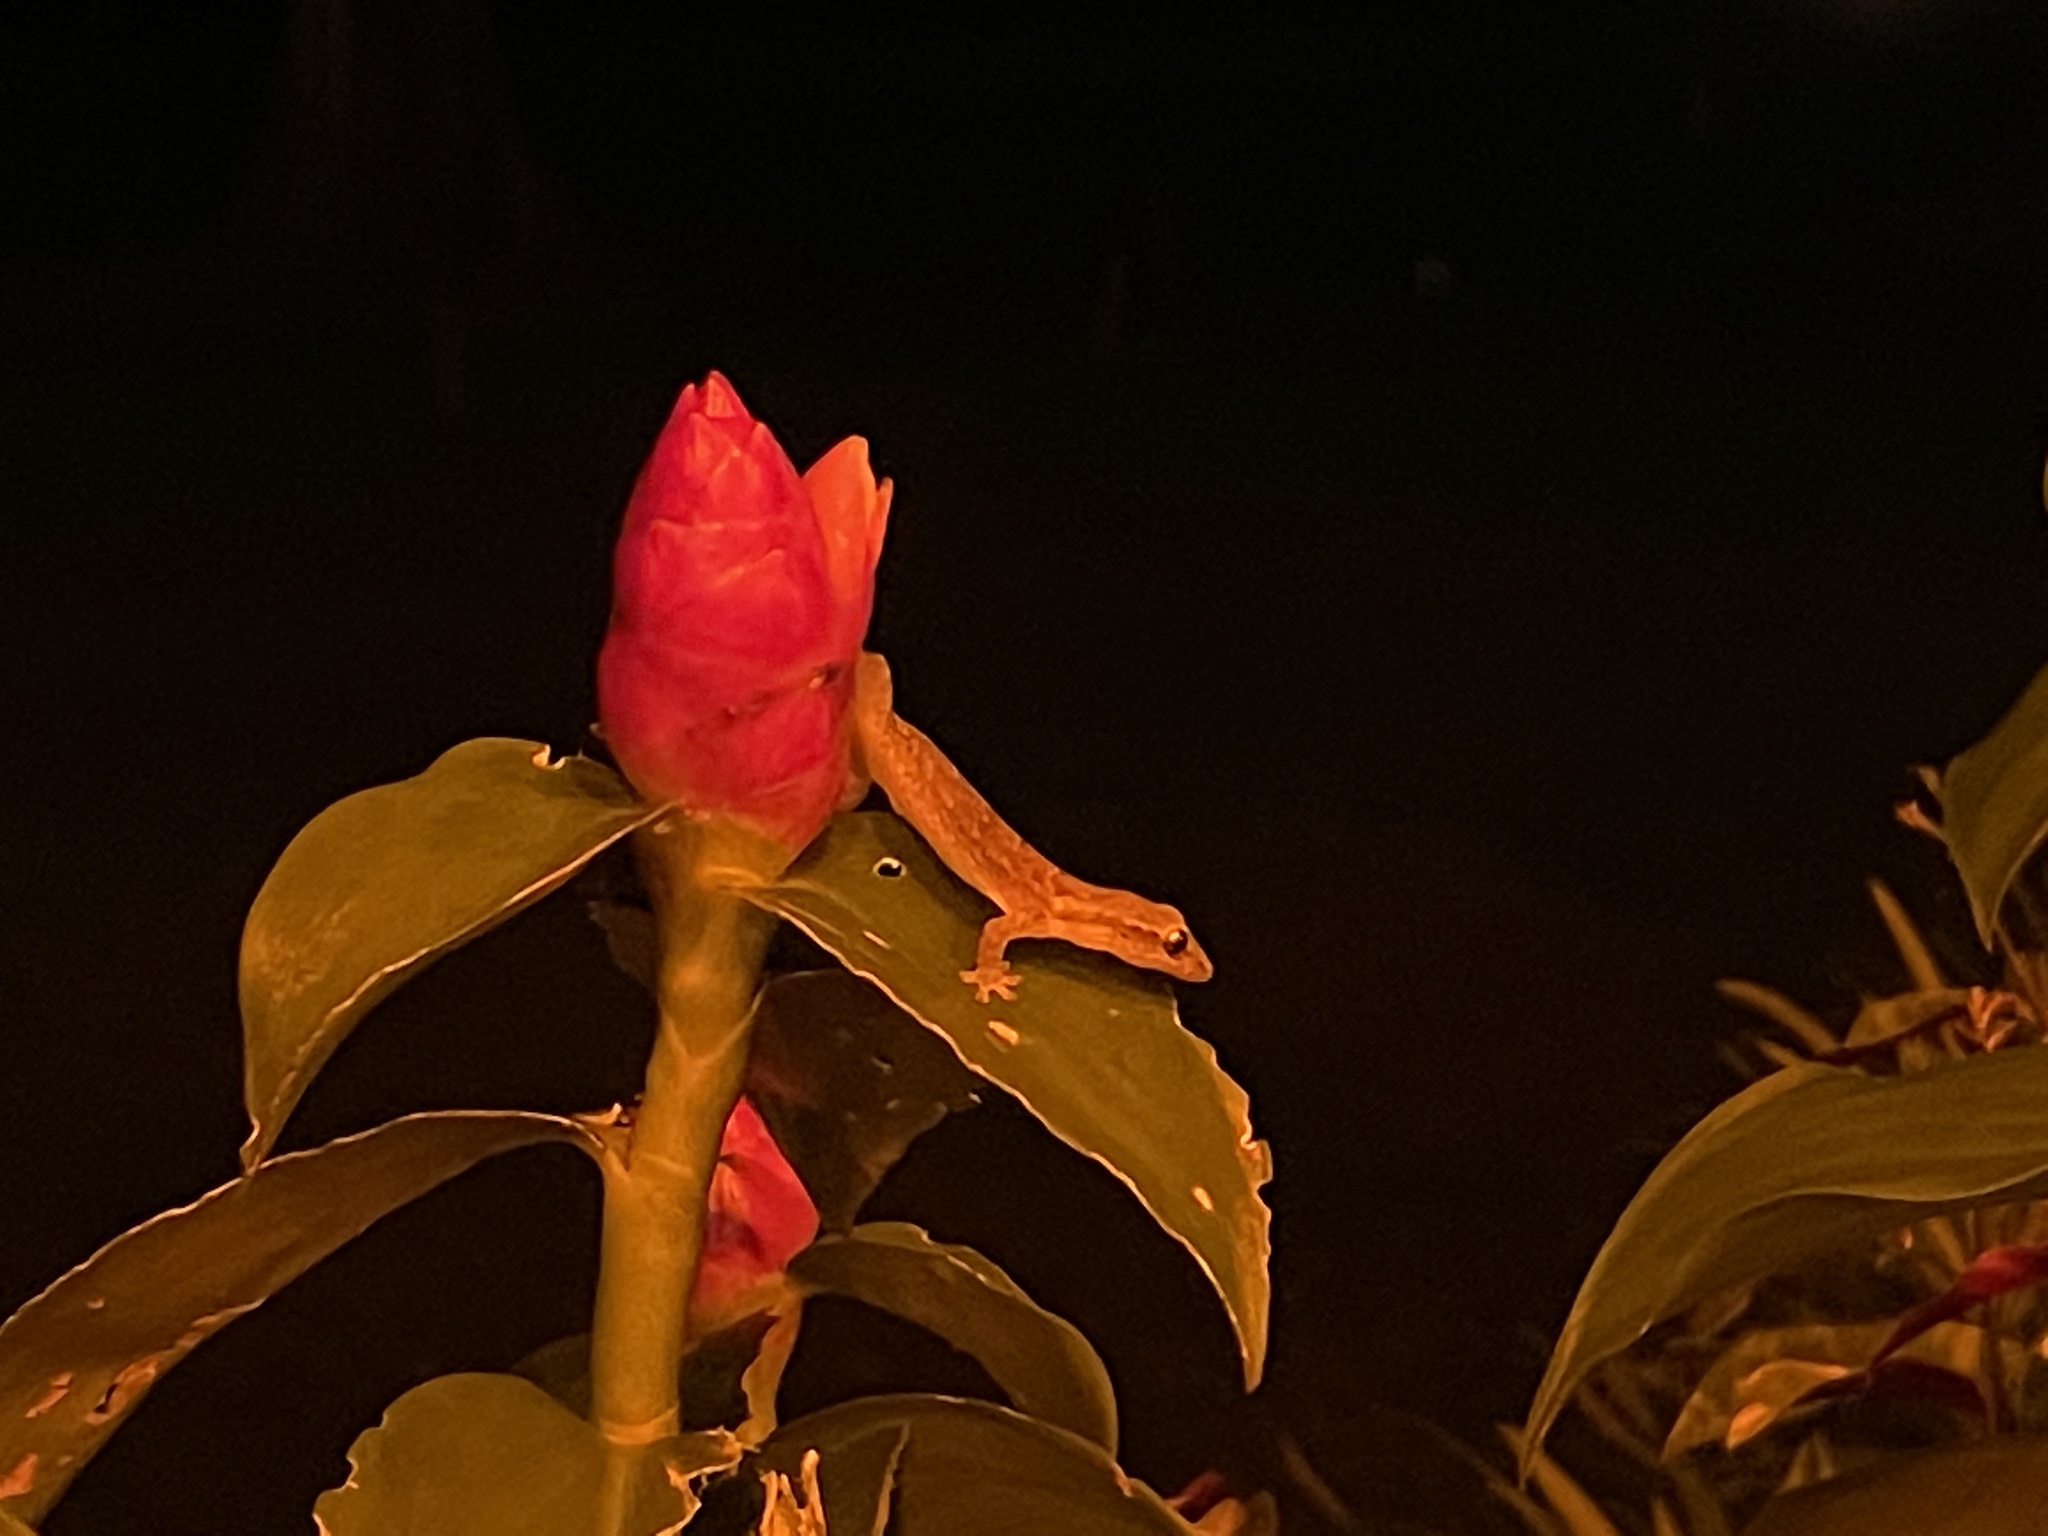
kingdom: Animalia
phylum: Chordata
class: Squamata
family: Gekkonidae
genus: Lepidodactylus
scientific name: Lepidodactylus lugubris
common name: Mourning gecko
